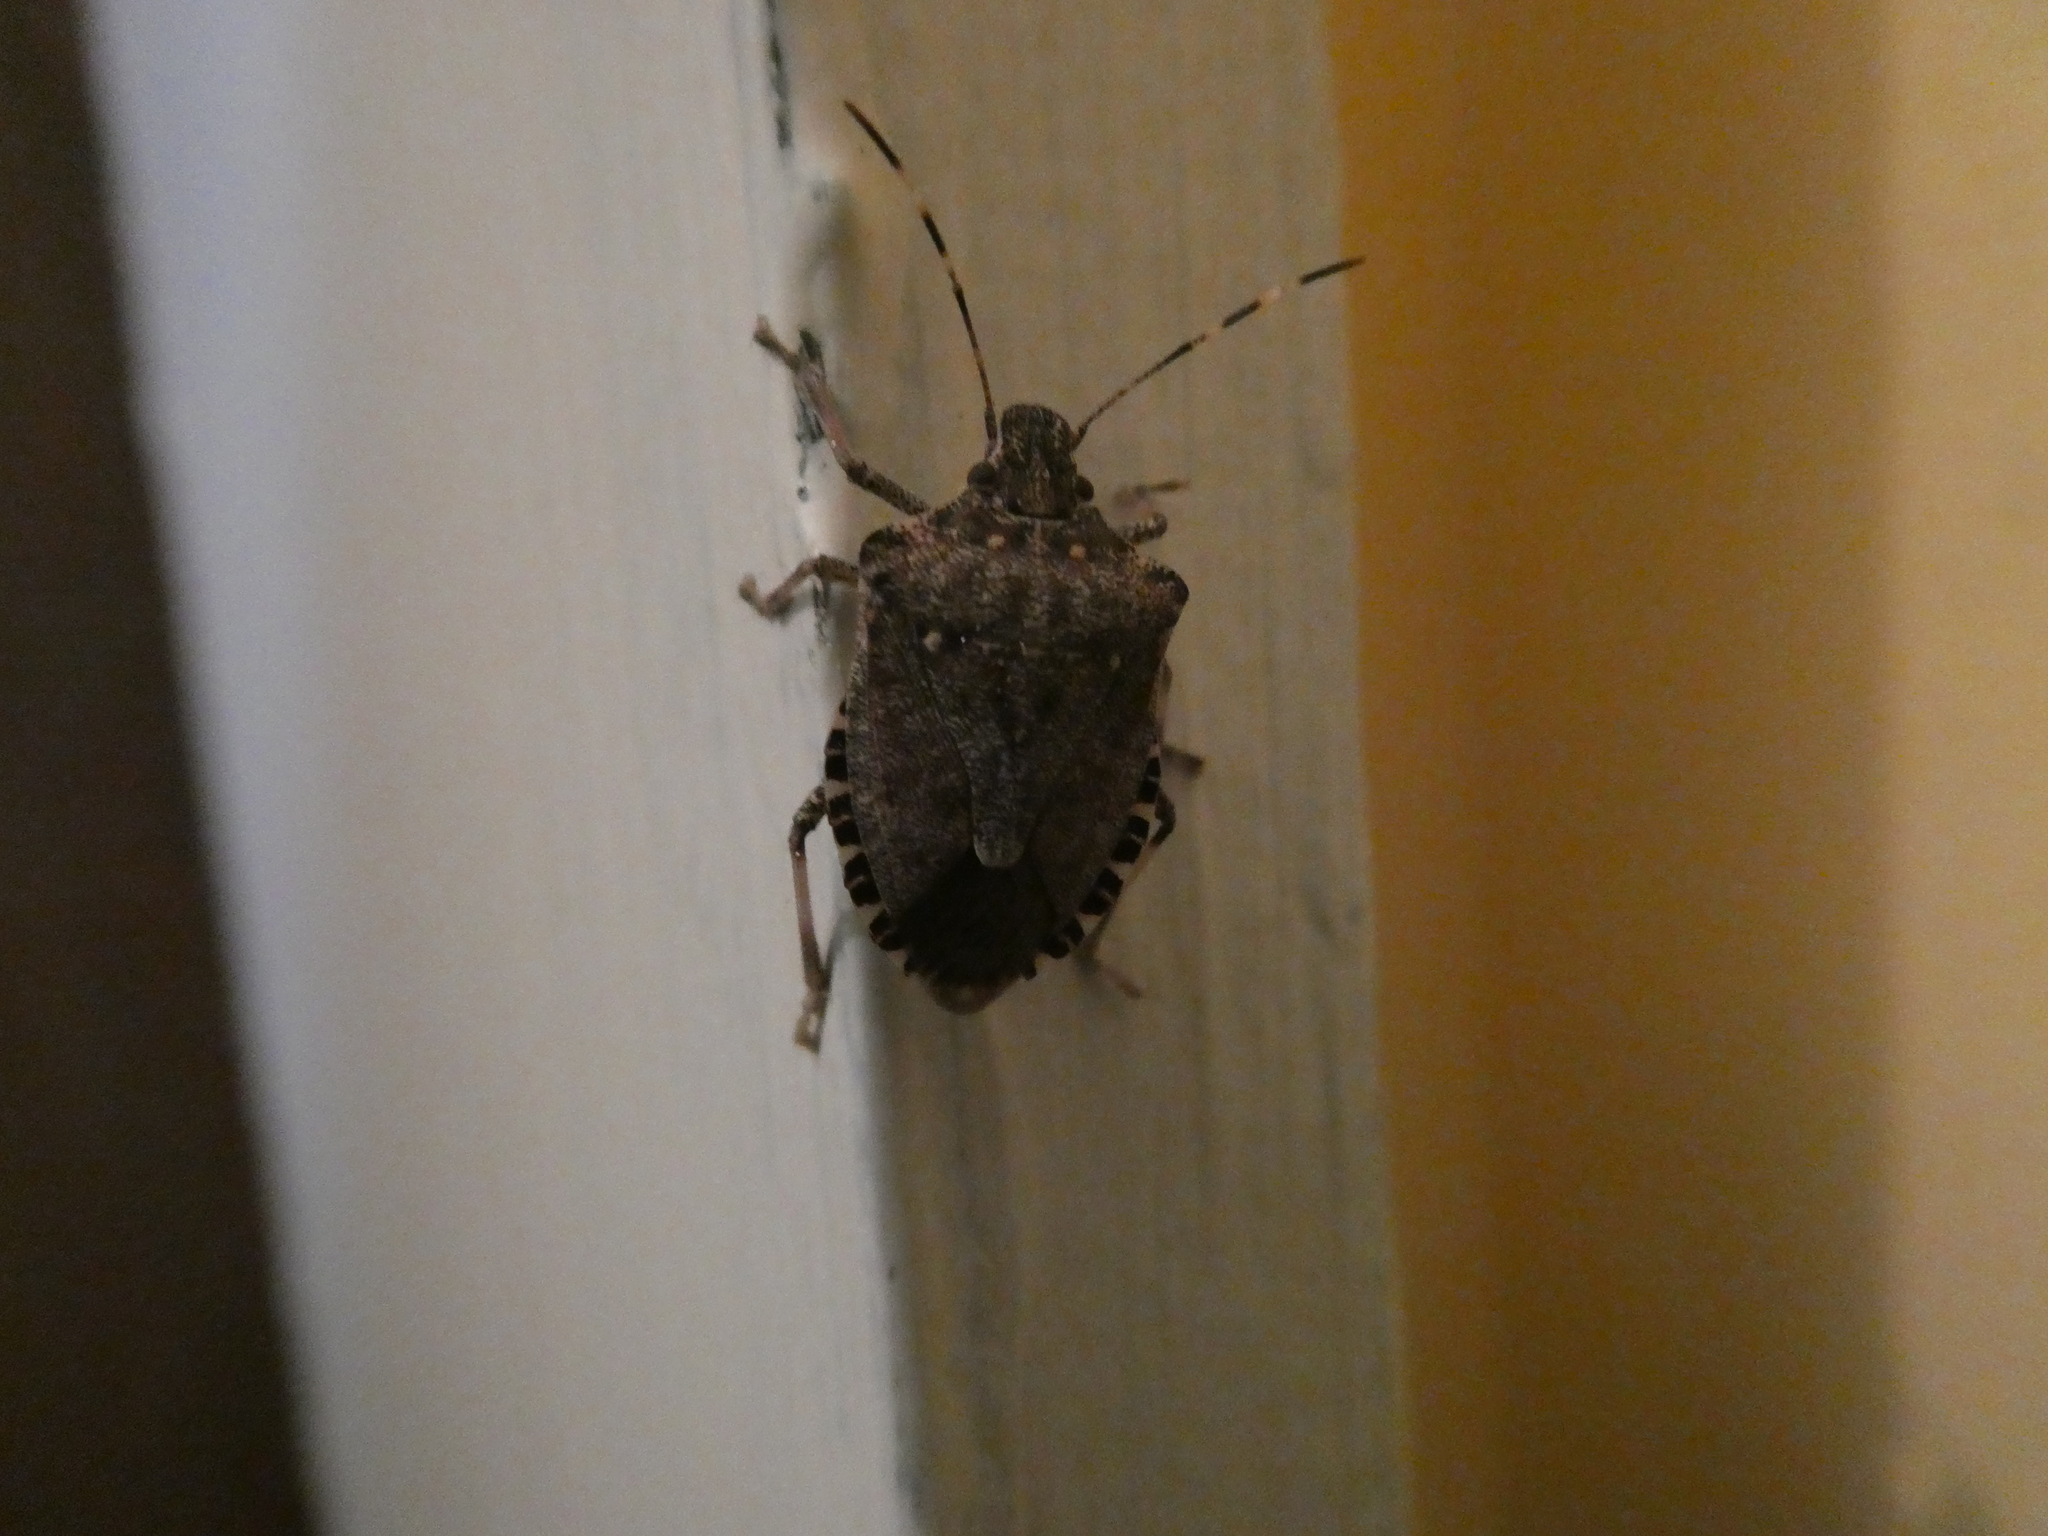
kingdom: Animalia
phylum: Arthropoda
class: Insecta
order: Hemiptera
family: Pentatomidae
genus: Halyomorpha
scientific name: Halyomorpha halys
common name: Brown marmorated stink bug
